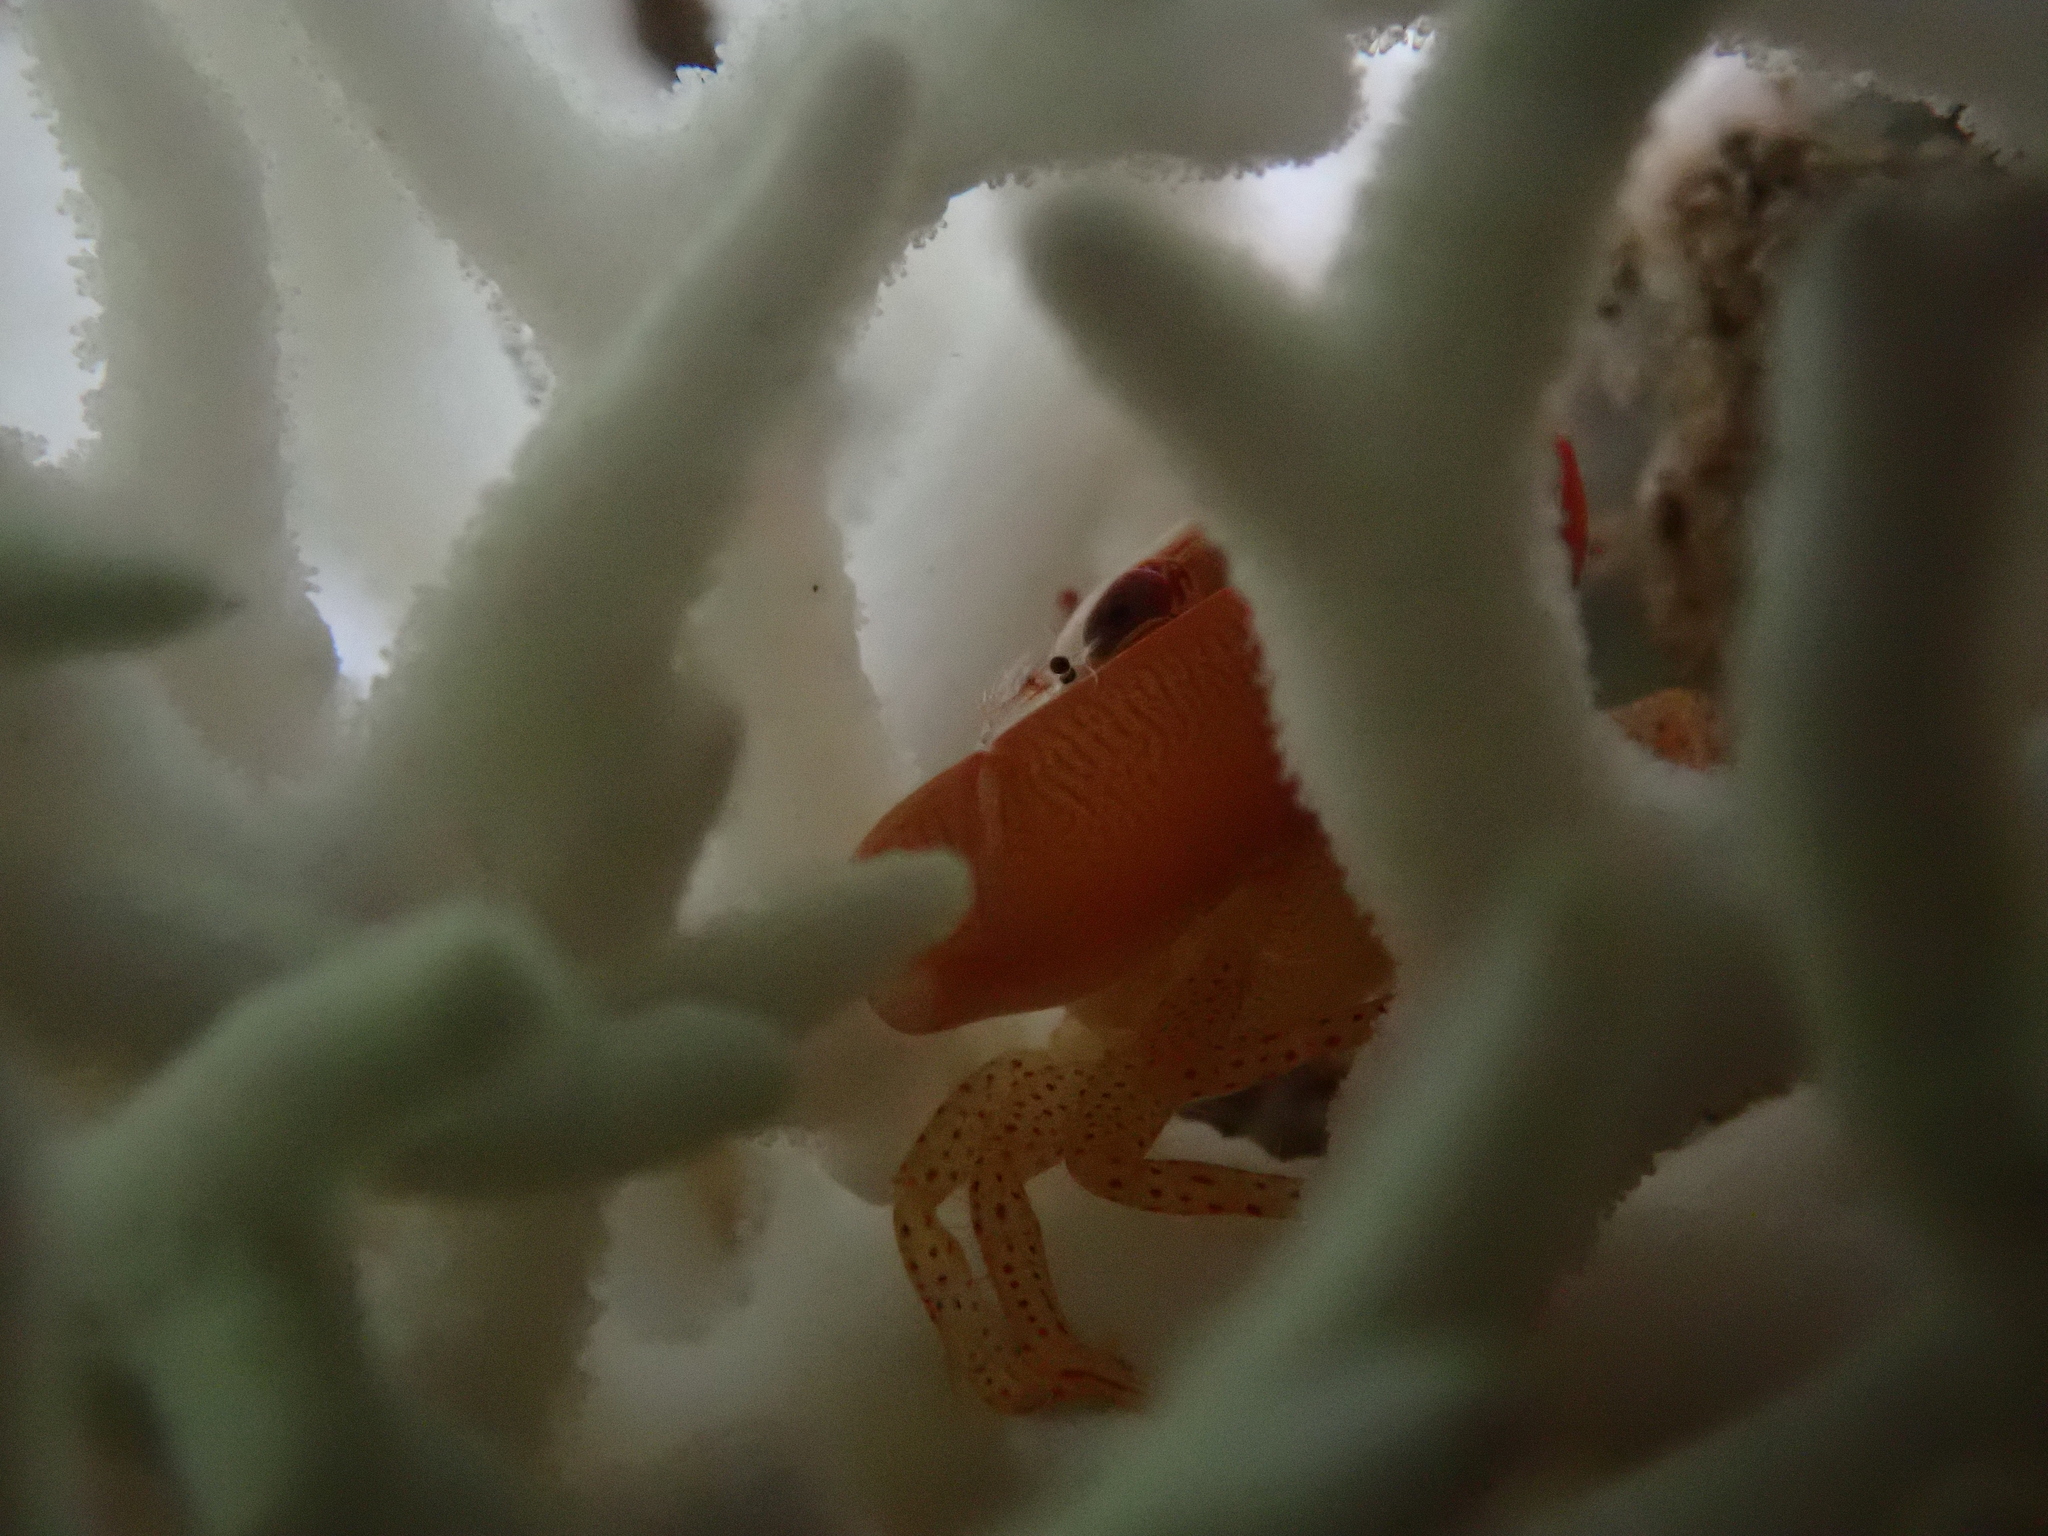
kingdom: Animalia
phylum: Arthropoda
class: Malacostraca
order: Decapoda
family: Trapeziidae
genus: Trapezia
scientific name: Trapezia guttata
